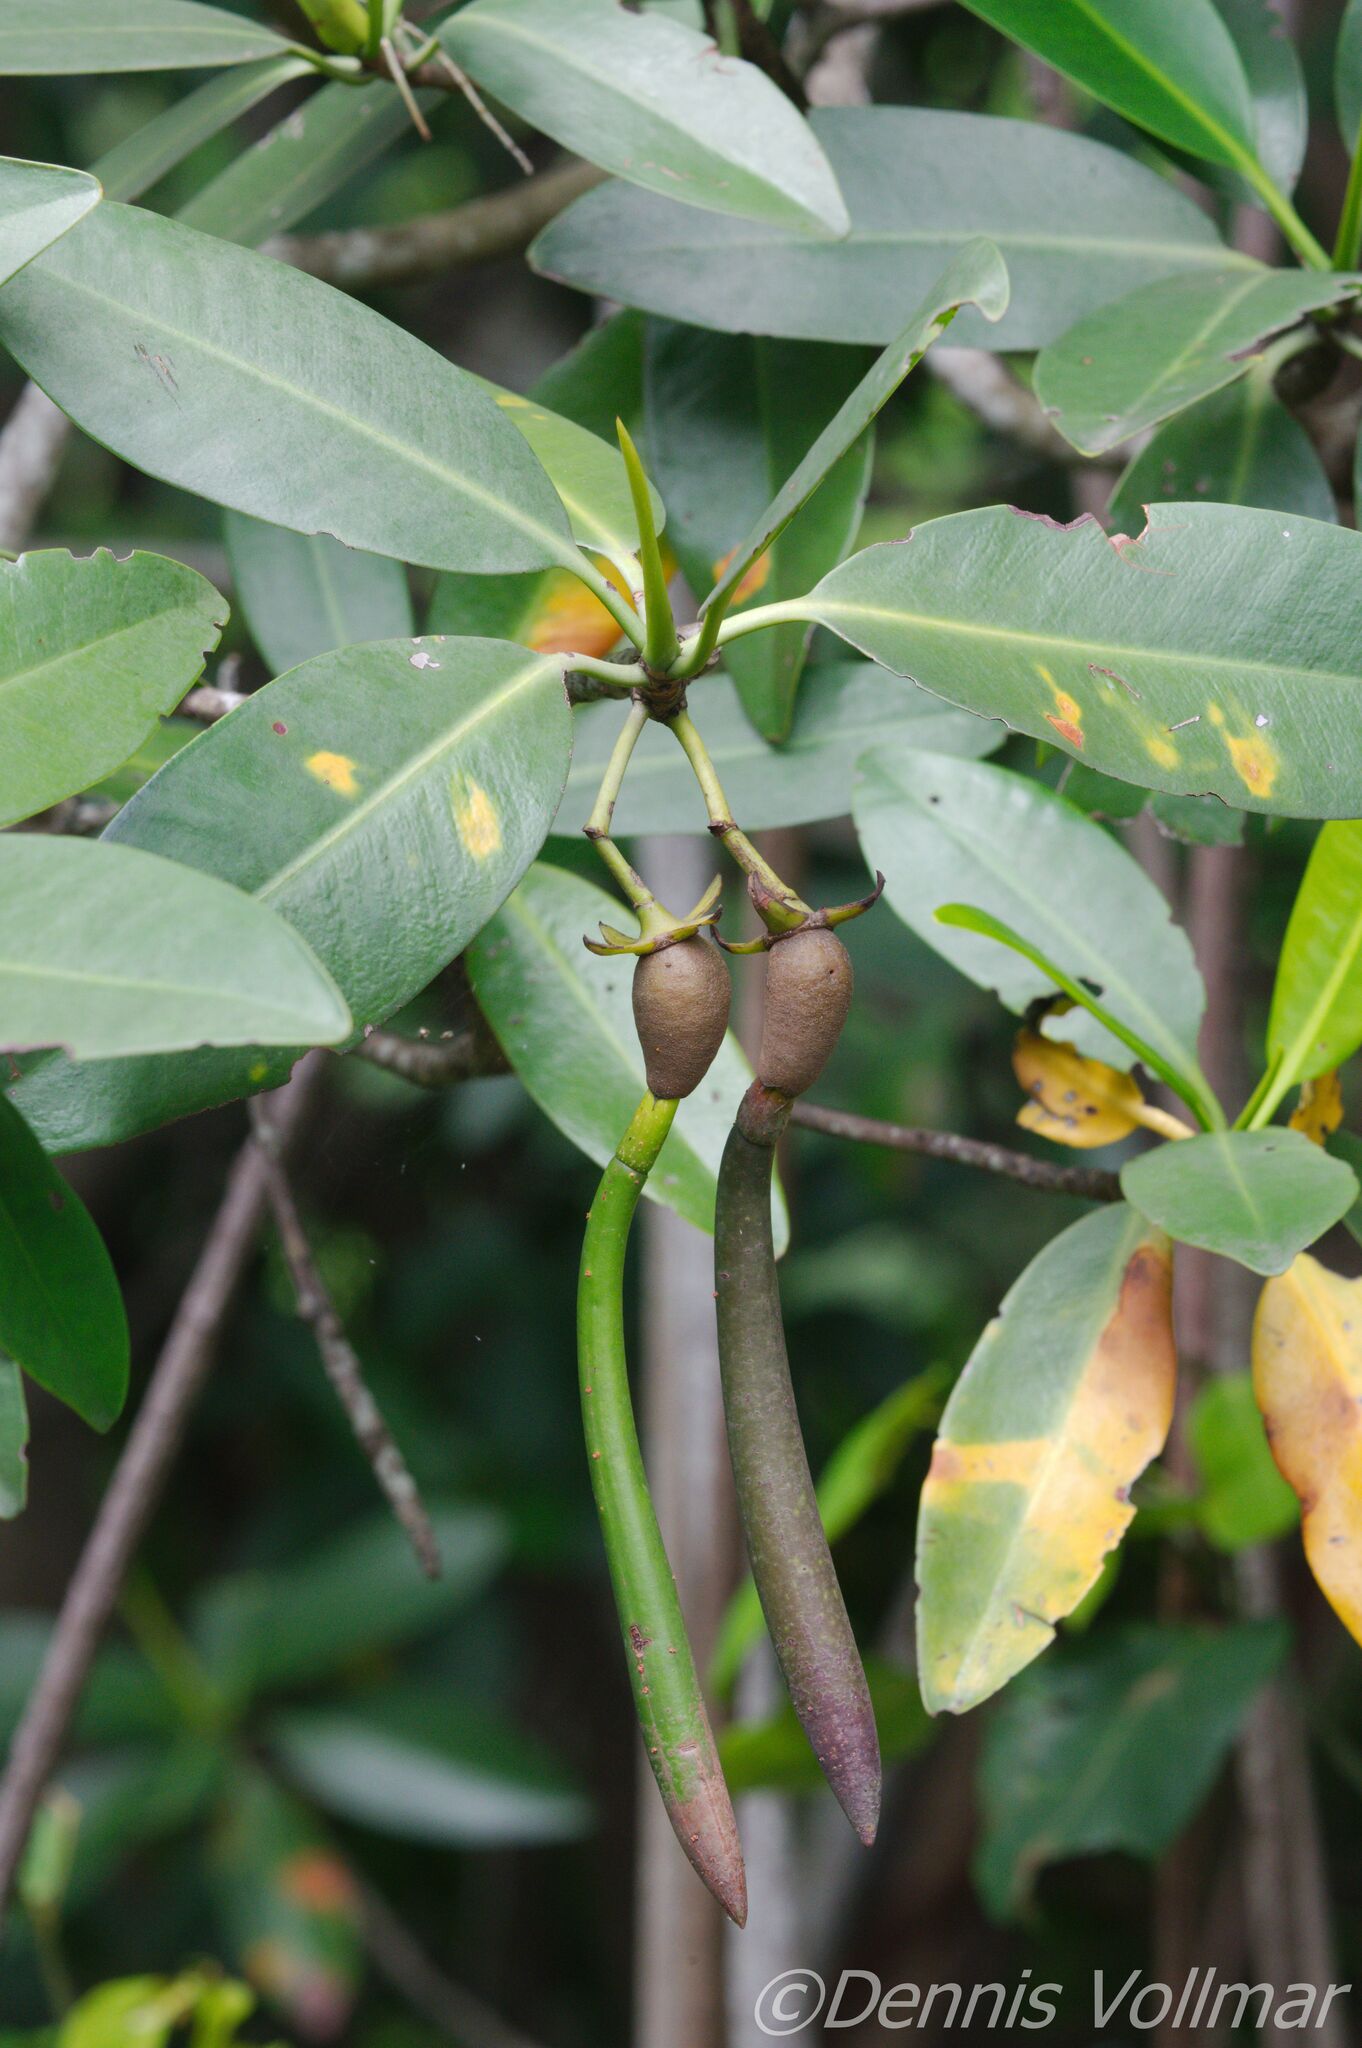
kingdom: Plantae
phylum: Tracheophyta
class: Magnoliopsida
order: Malpighiales
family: Rhizophoraceae
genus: Rhizophora
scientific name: Rhizophora mangle
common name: Red mangrove
